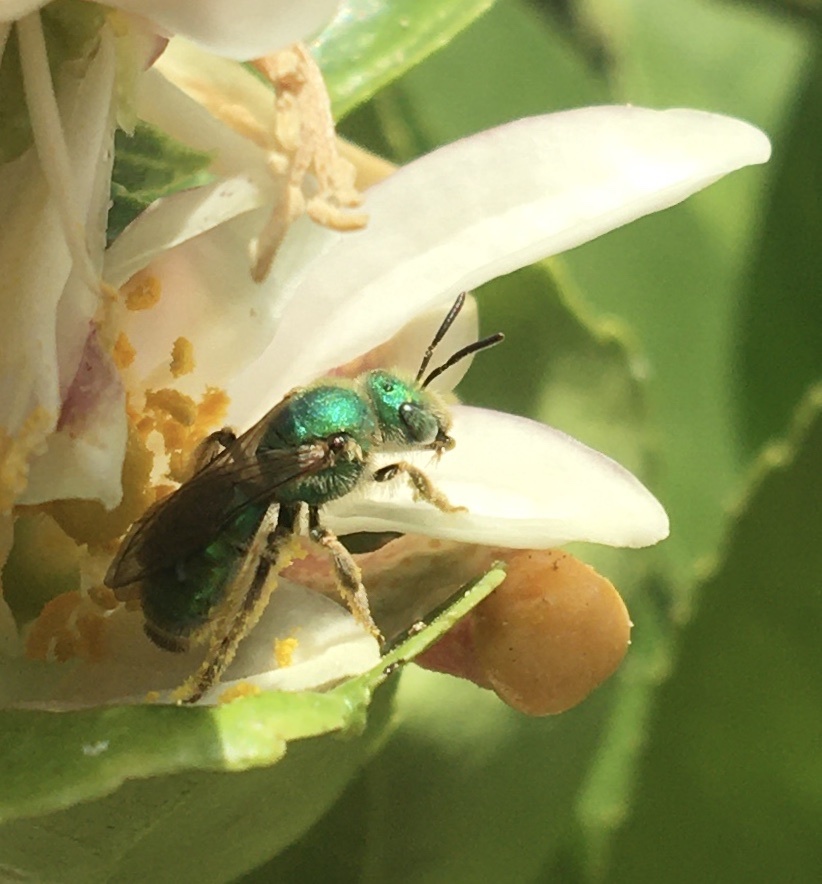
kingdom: Animalia
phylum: Arthropoda
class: Insecta
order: Hymenoptera
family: Halictidae
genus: Agapostemon
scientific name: Agapostemon texanus
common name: Texas striped sweat bee
